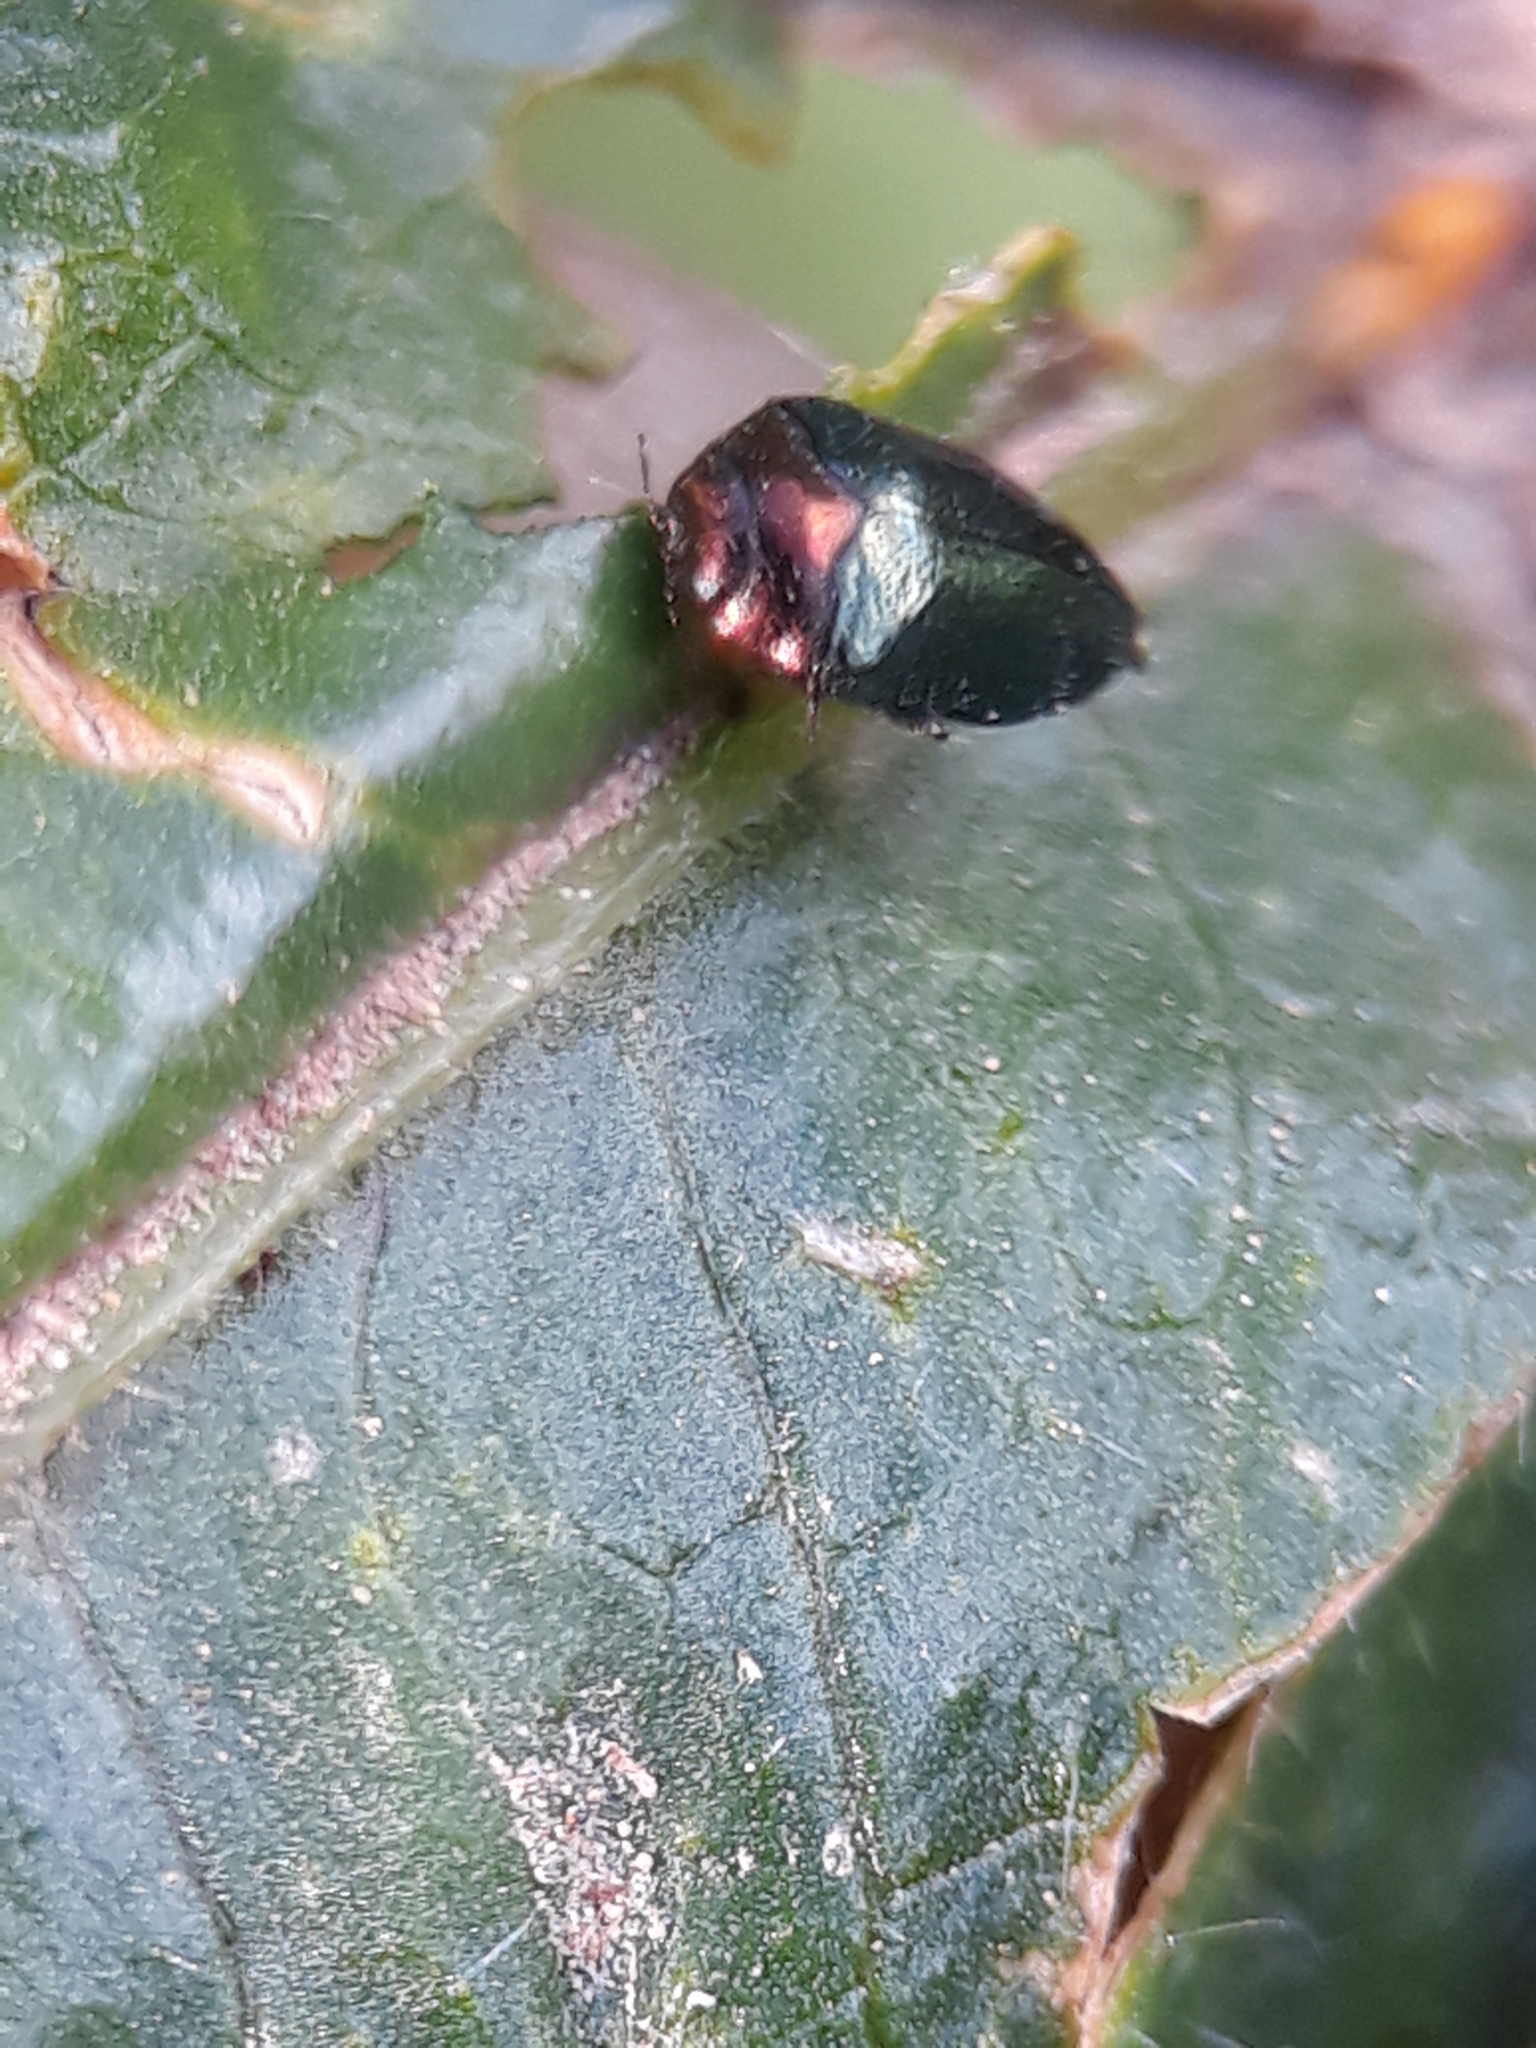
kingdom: Animalia
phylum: Arthropoda
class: Insecta
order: Coleoptera
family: Buprestidae
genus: Trachys
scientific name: Trachys troglodytiformis
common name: Metallic wood-boring beetle
